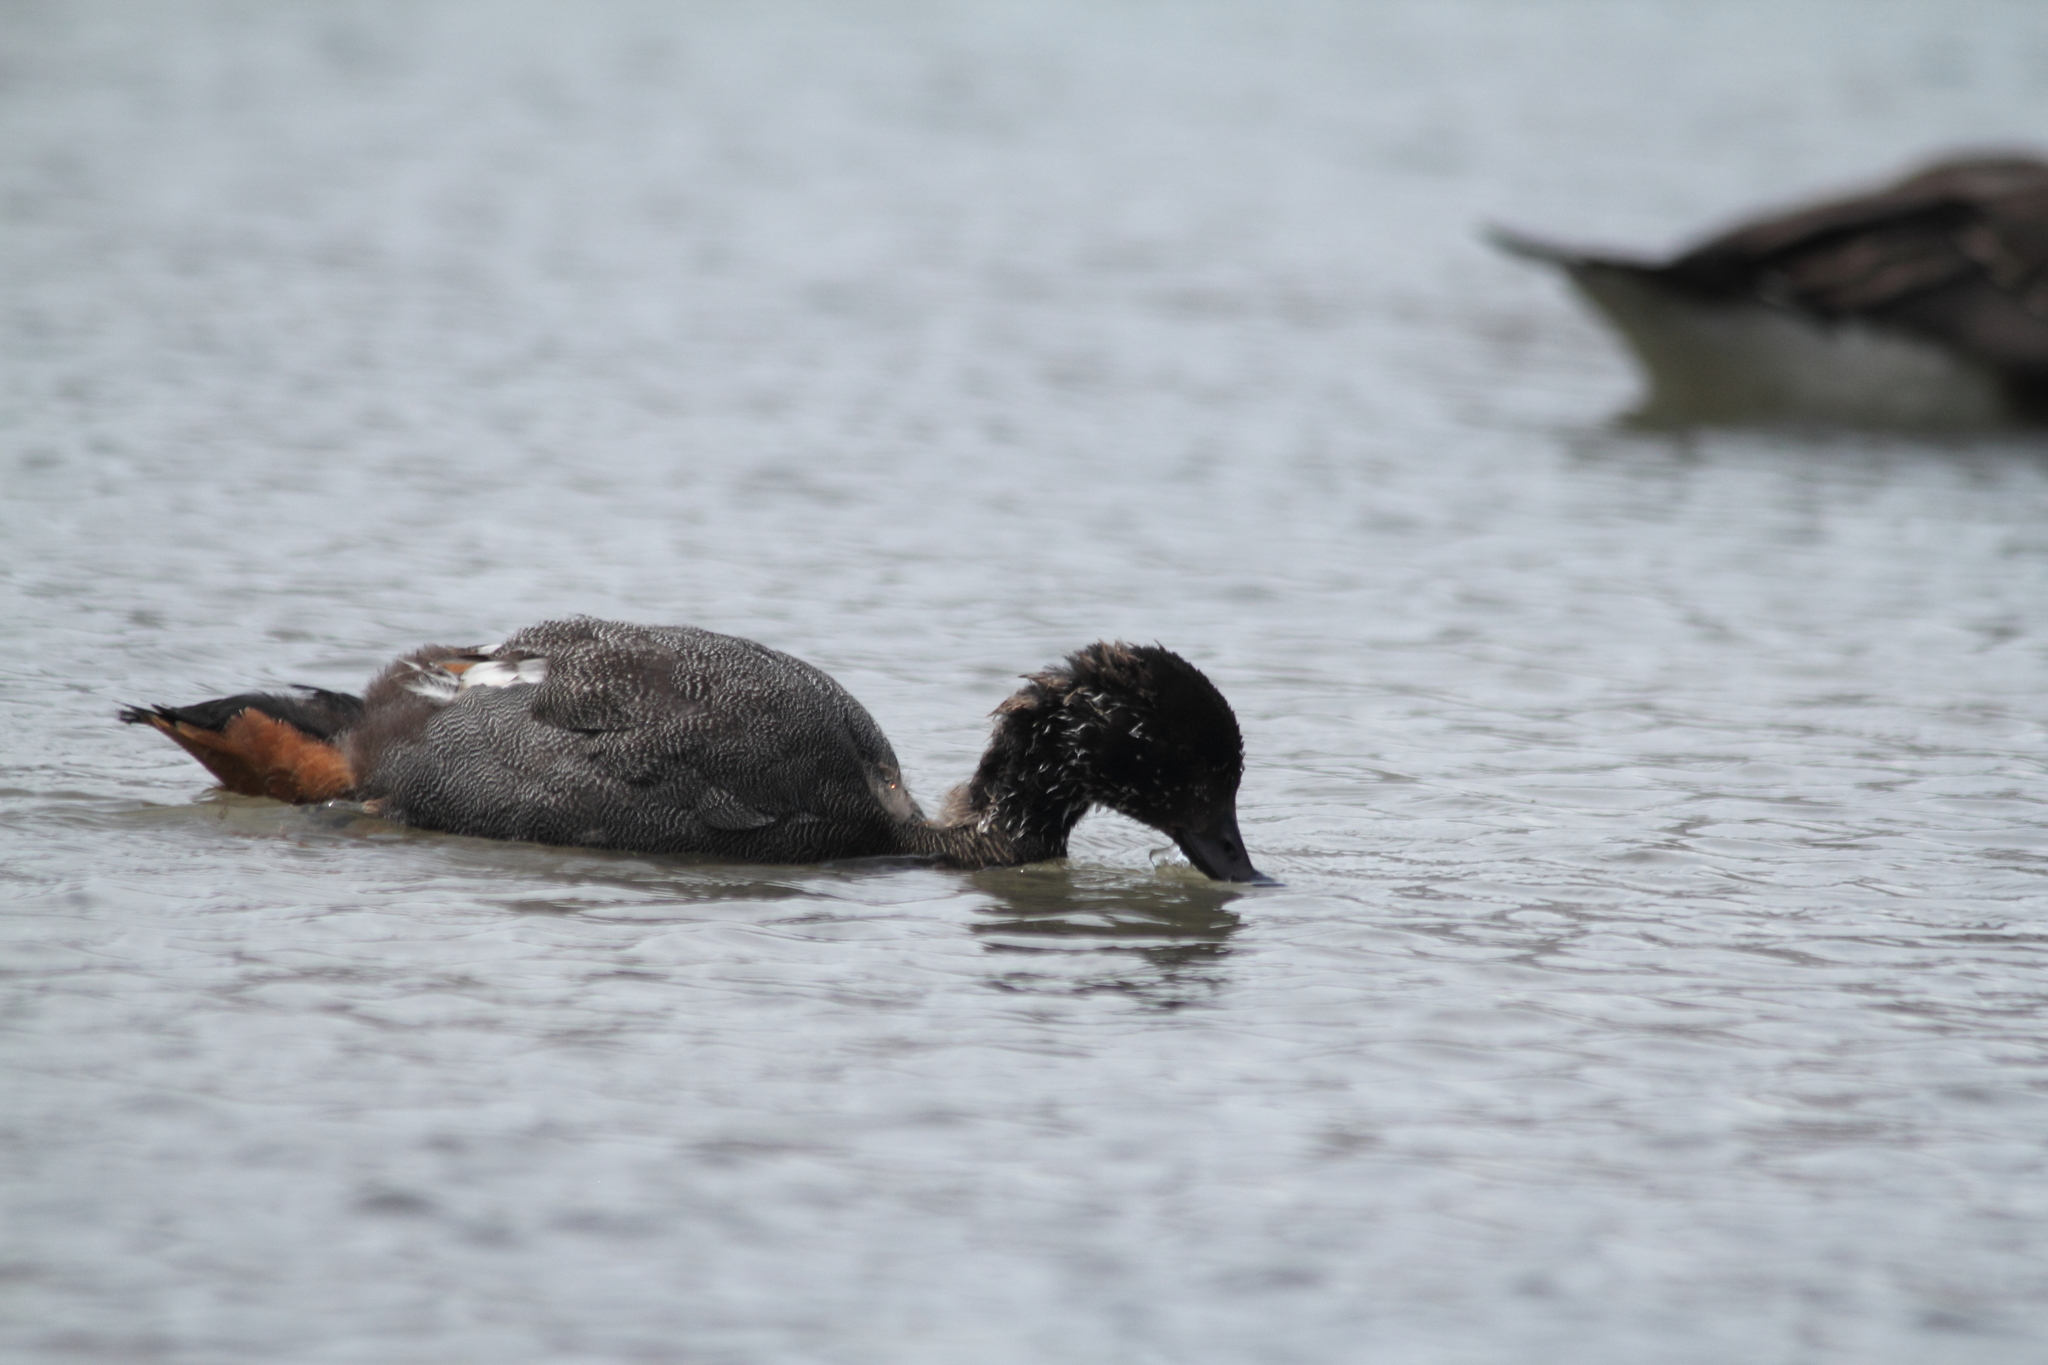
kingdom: Animalia
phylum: Chordata
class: Aves
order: Anseriformes
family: Anatidae
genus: Tadorna
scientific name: Tadorna variegata
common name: Paradise shelduck
